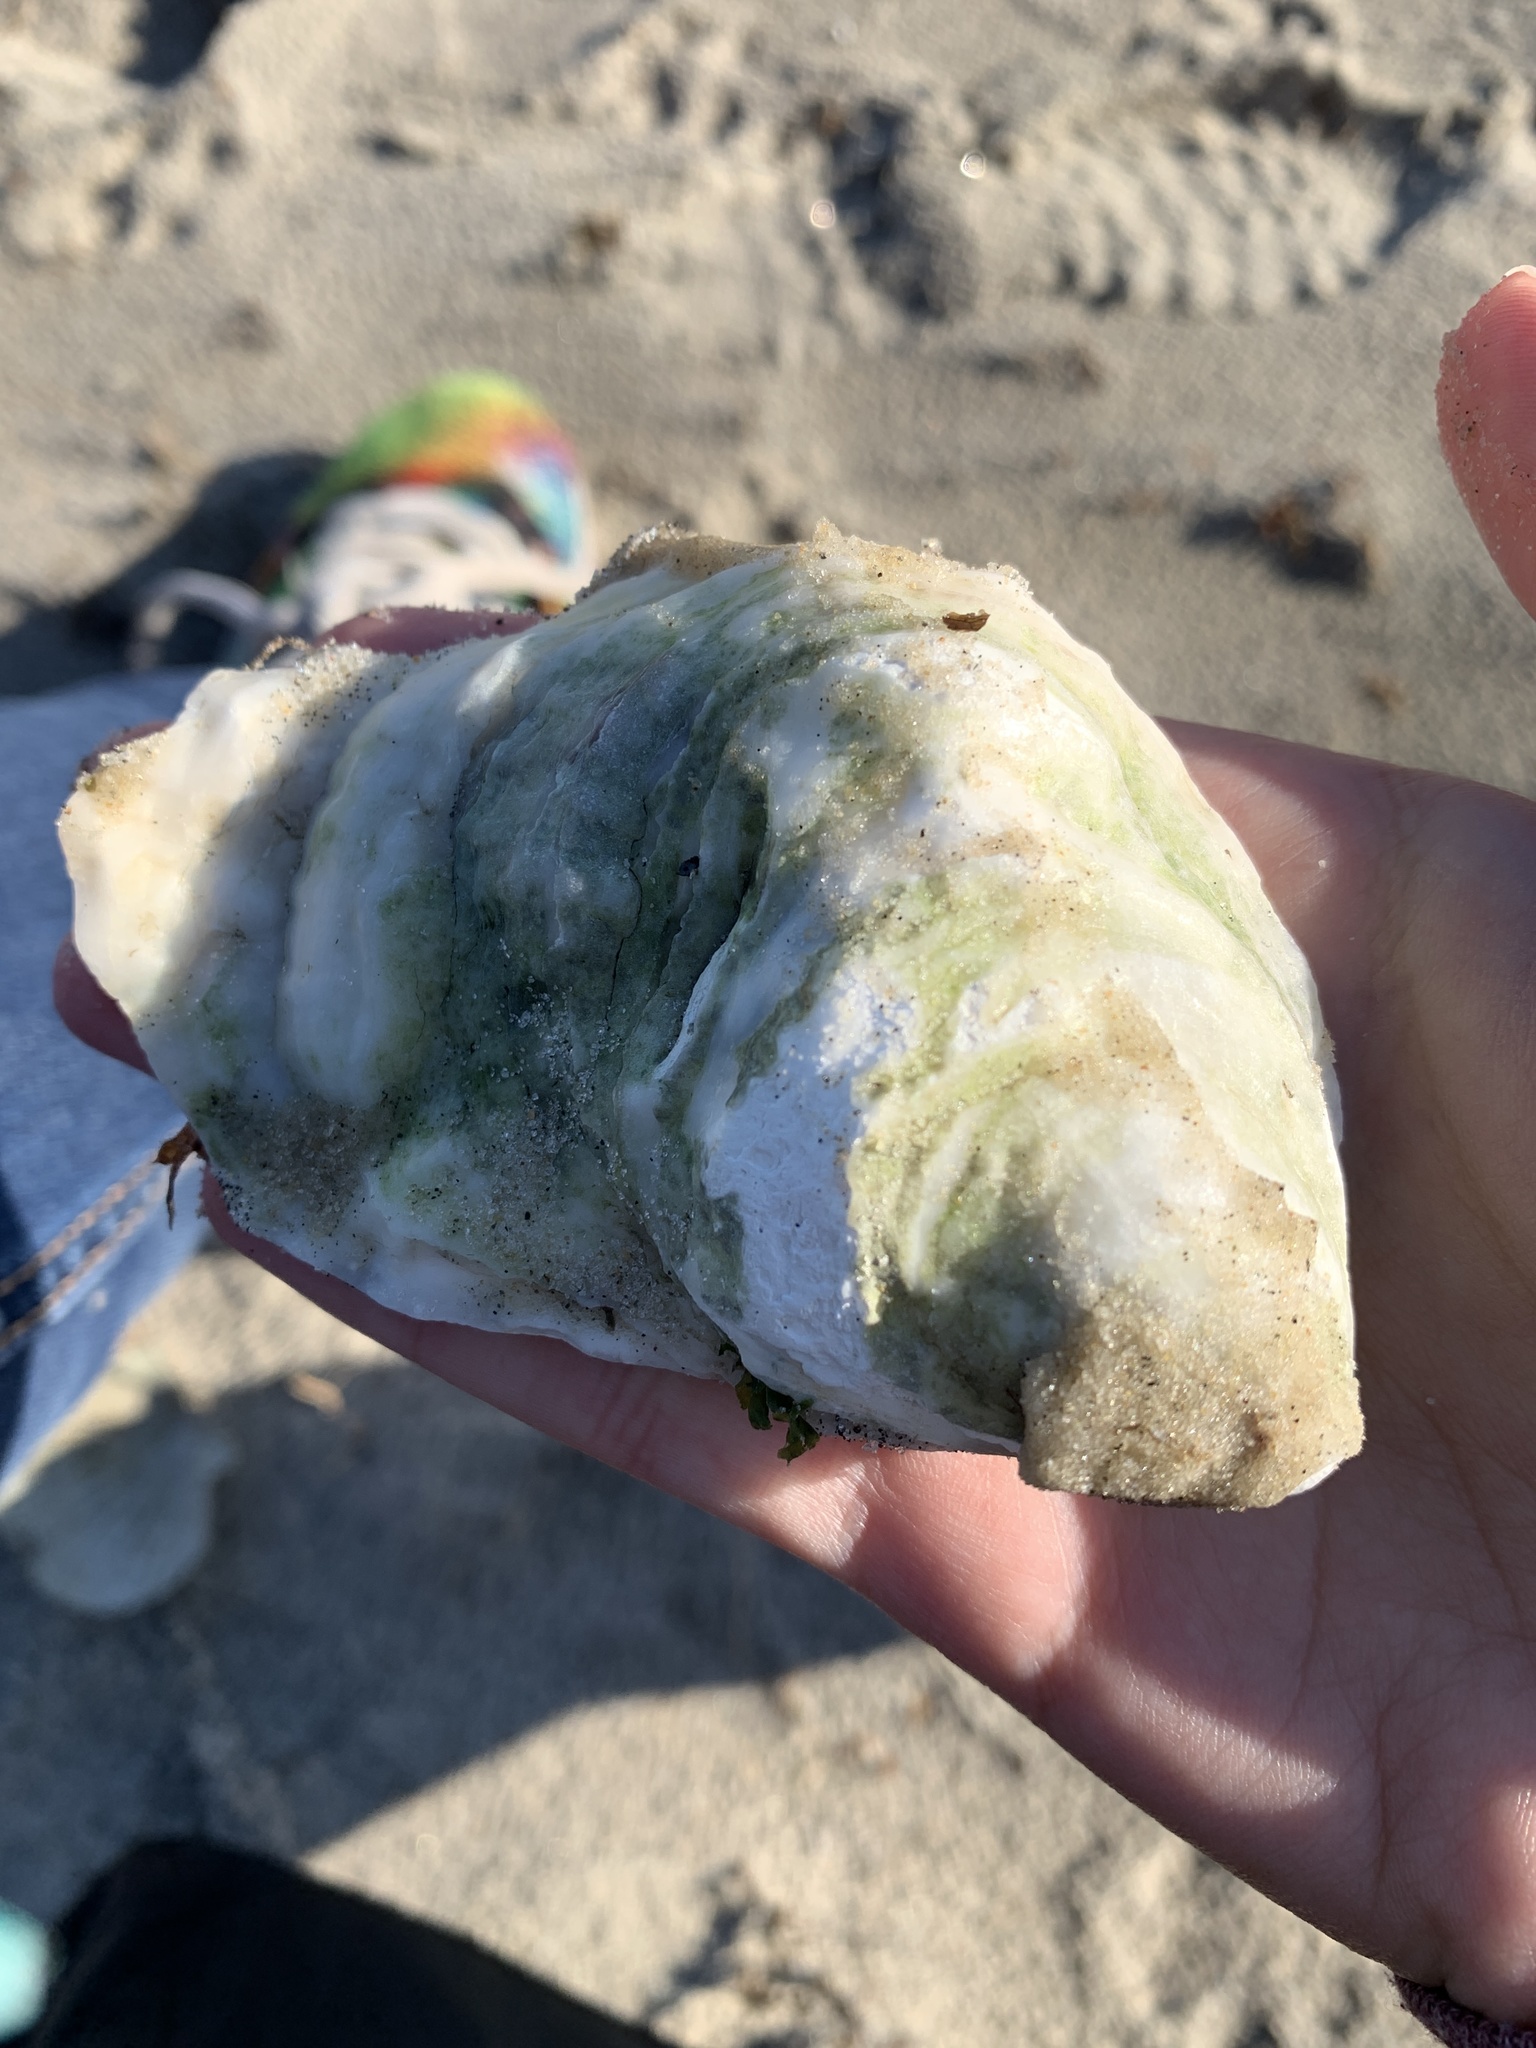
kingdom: Animalia
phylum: Mollusca
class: Bivalvia
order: Ostreida
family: Ostreidae
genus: Crassostrea
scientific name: Crassostrea virginica
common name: American oyster
